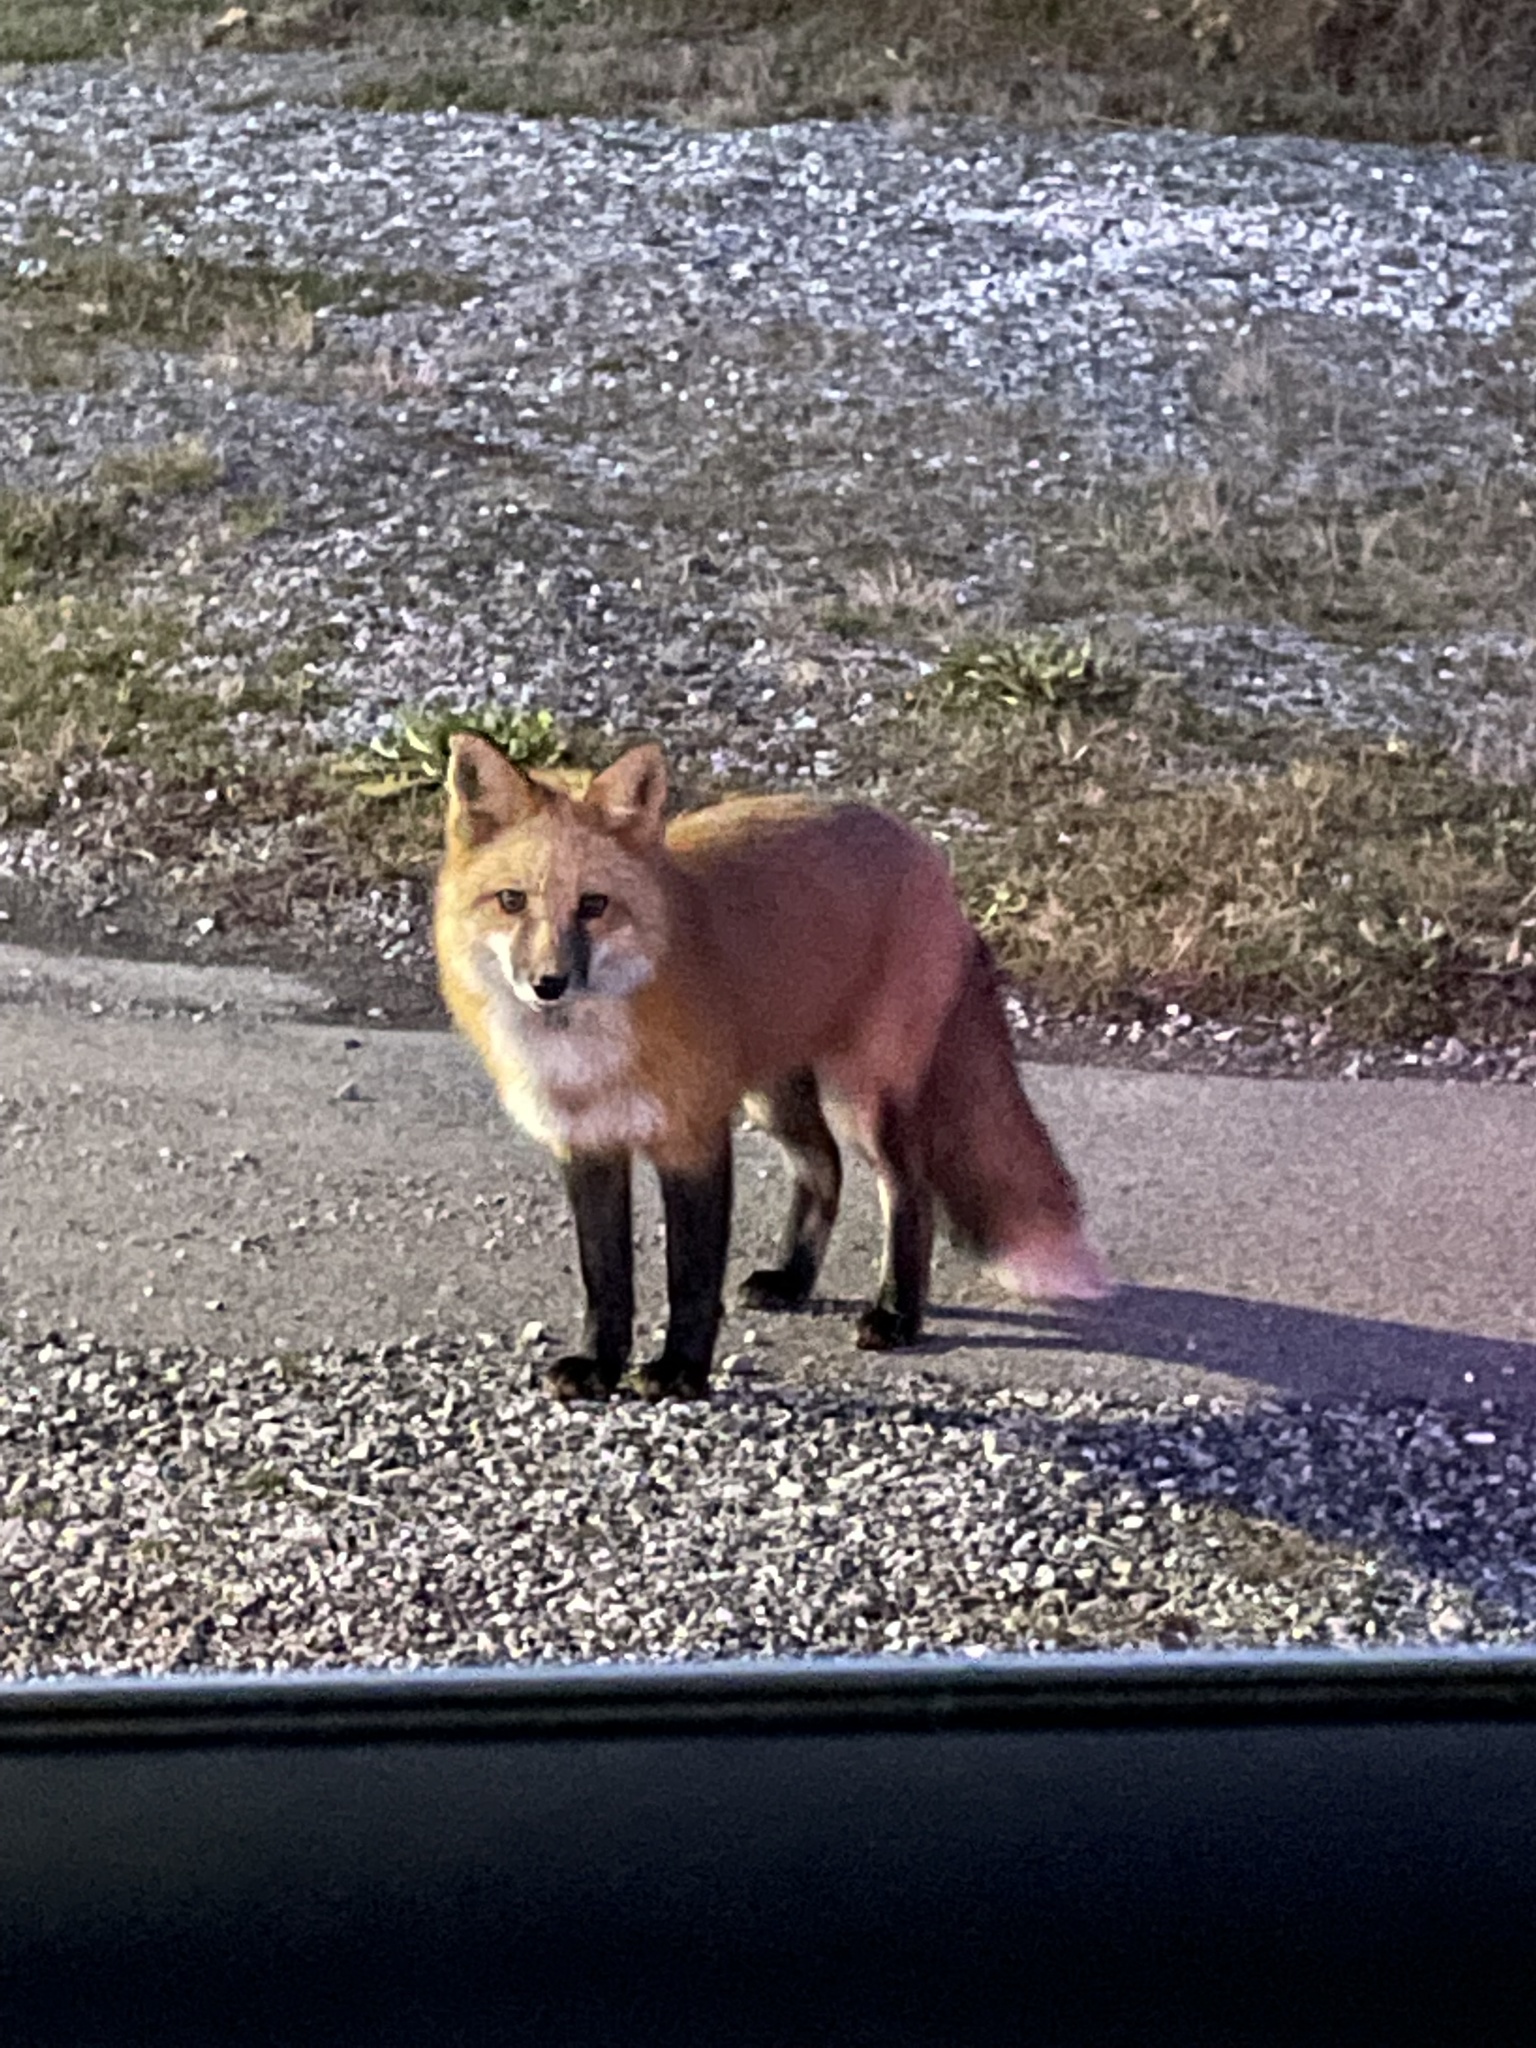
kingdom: Animalia
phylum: Chordata
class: Mammalia
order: Carnivora
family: Canidae
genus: Vulpes
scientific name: Vulpes vulpes
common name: Red fox
